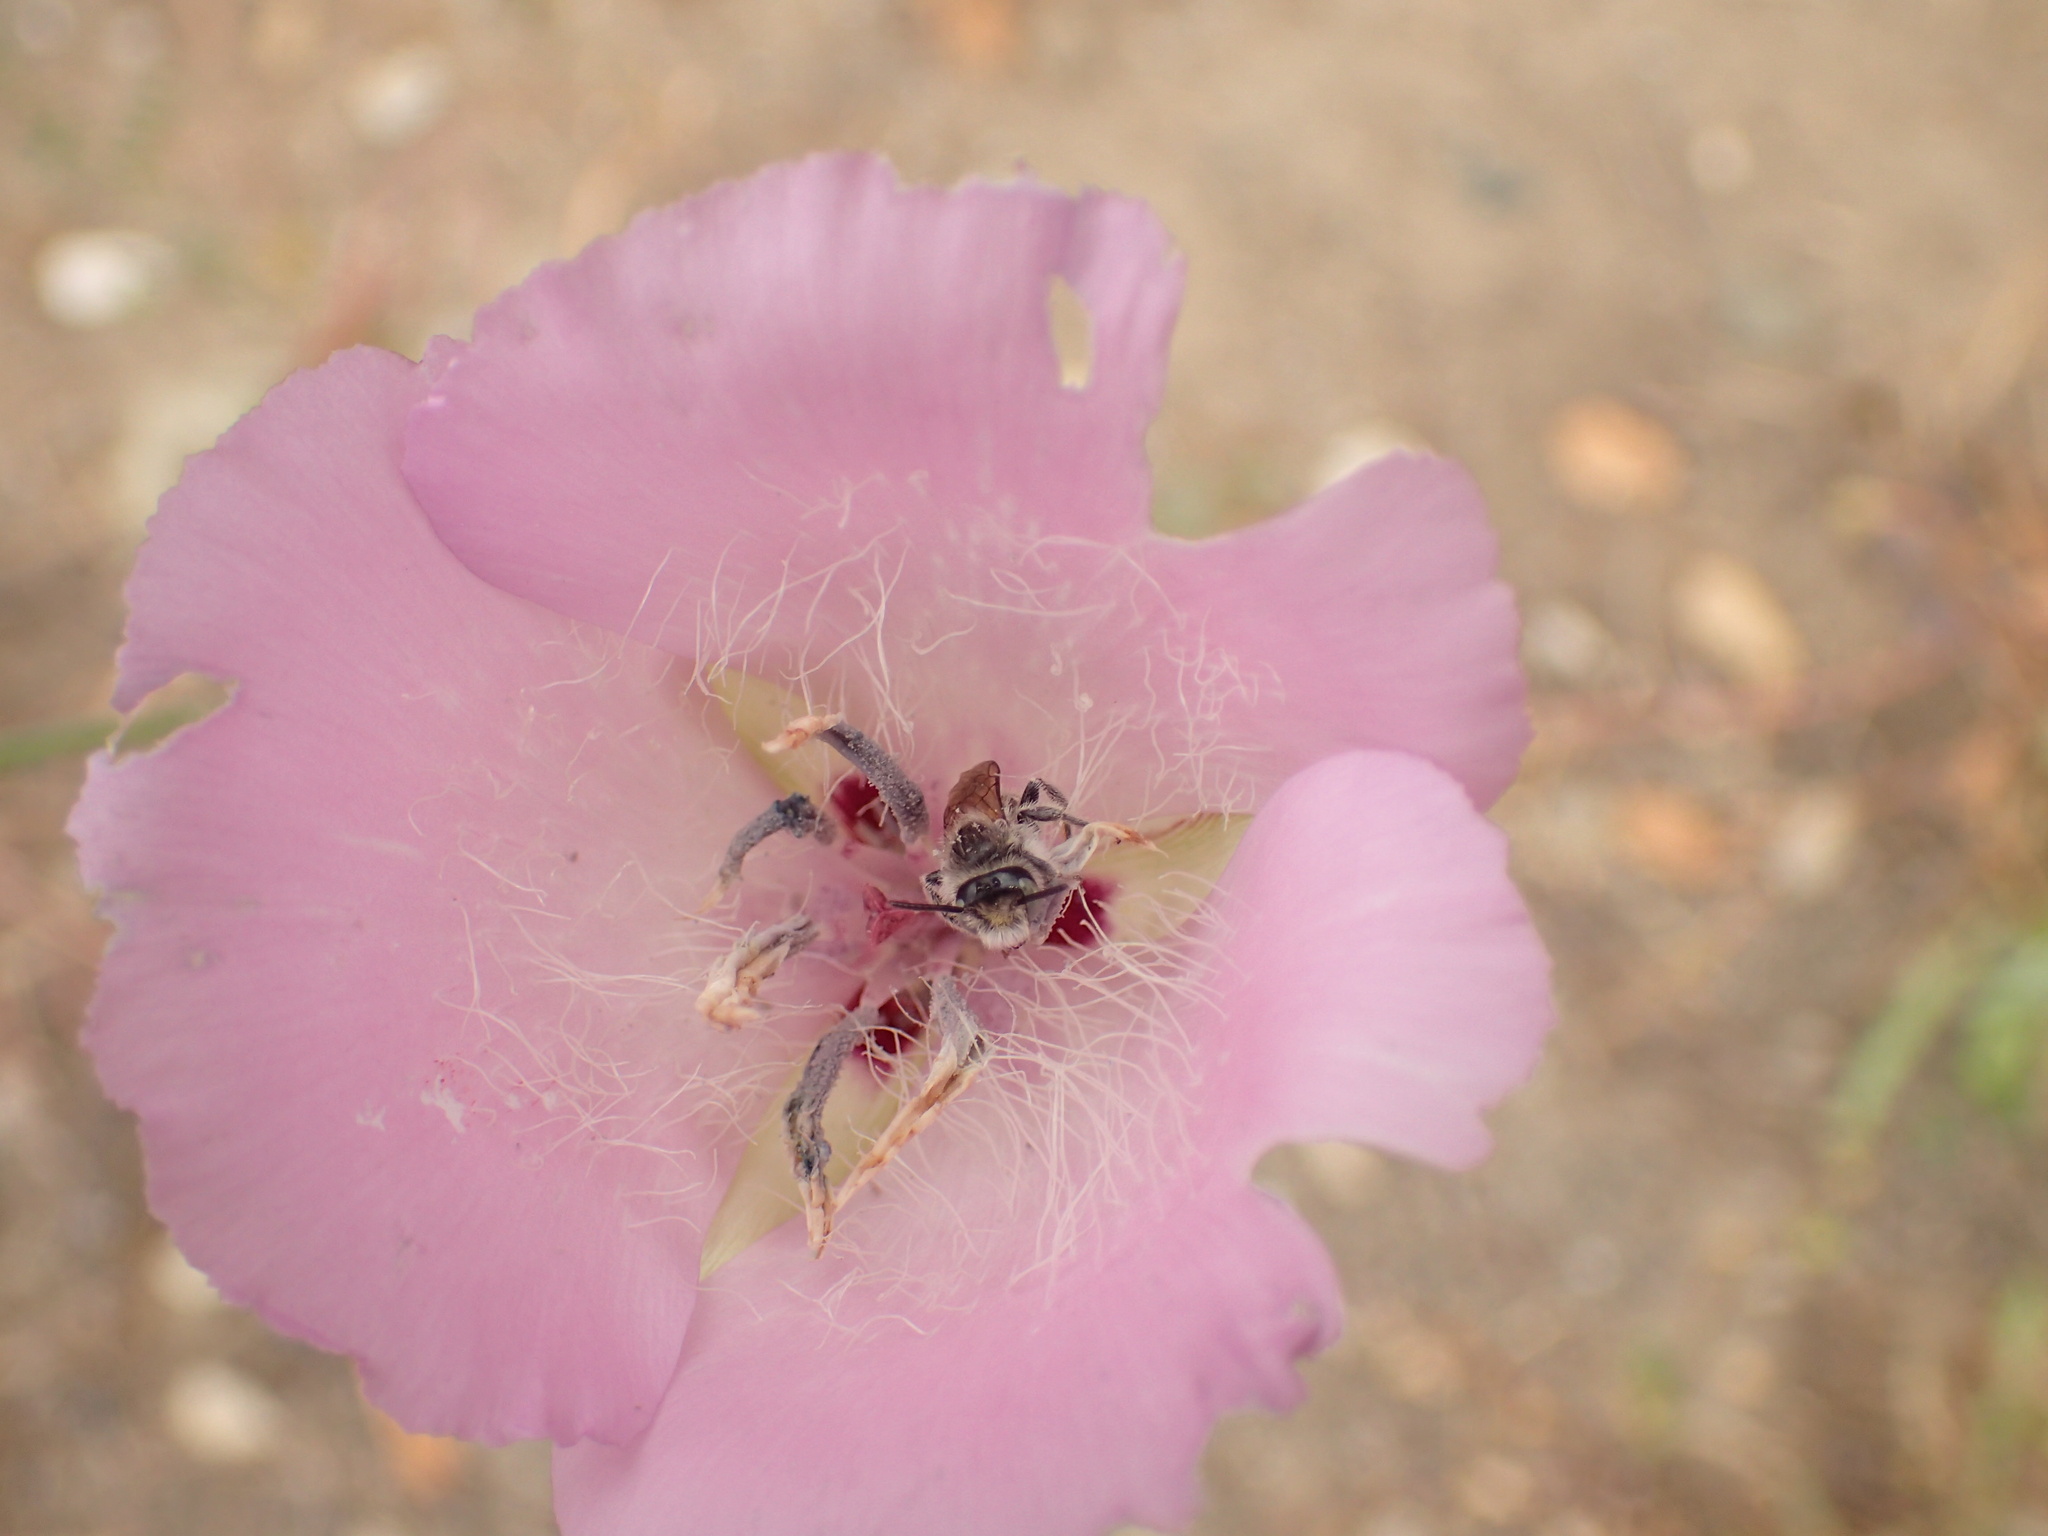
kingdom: Plantae
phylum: Tracheophyta
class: Liliopsida
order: Liliales
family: Liliaceae
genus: Calochortus
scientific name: Calochortus splendens
